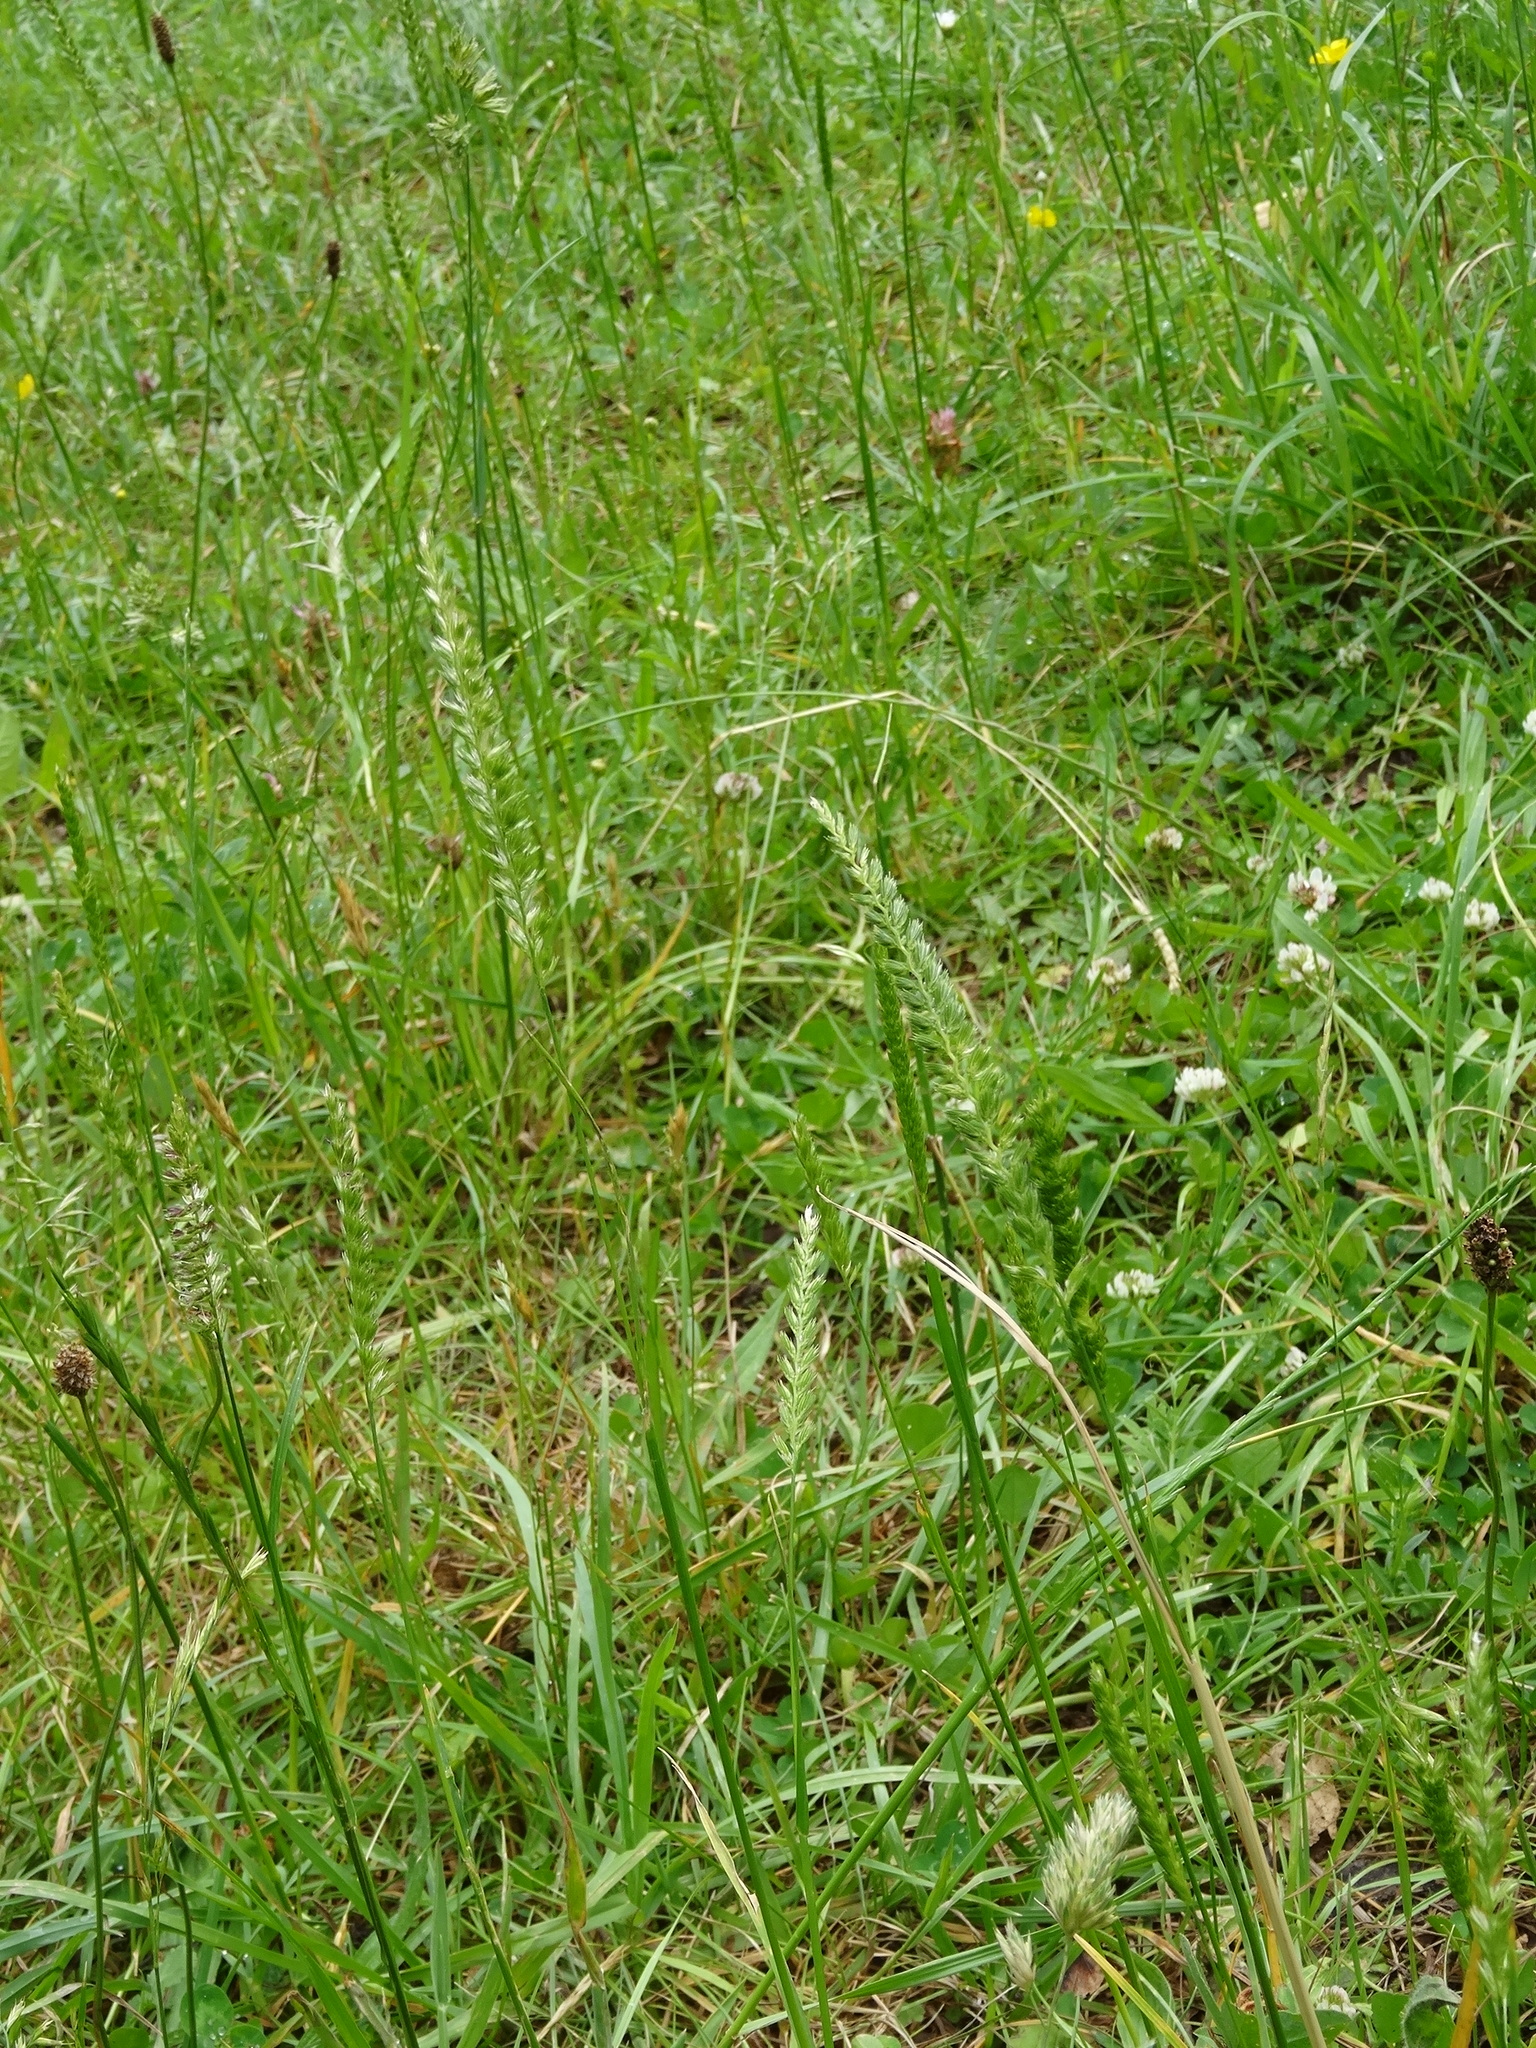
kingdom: Plantae
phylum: Tracheophyta
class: Liliopsida
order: Poales
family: Poaceae
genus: Cynosurus
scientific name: Cynosurus cristatus
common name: Crested dog's-tail
